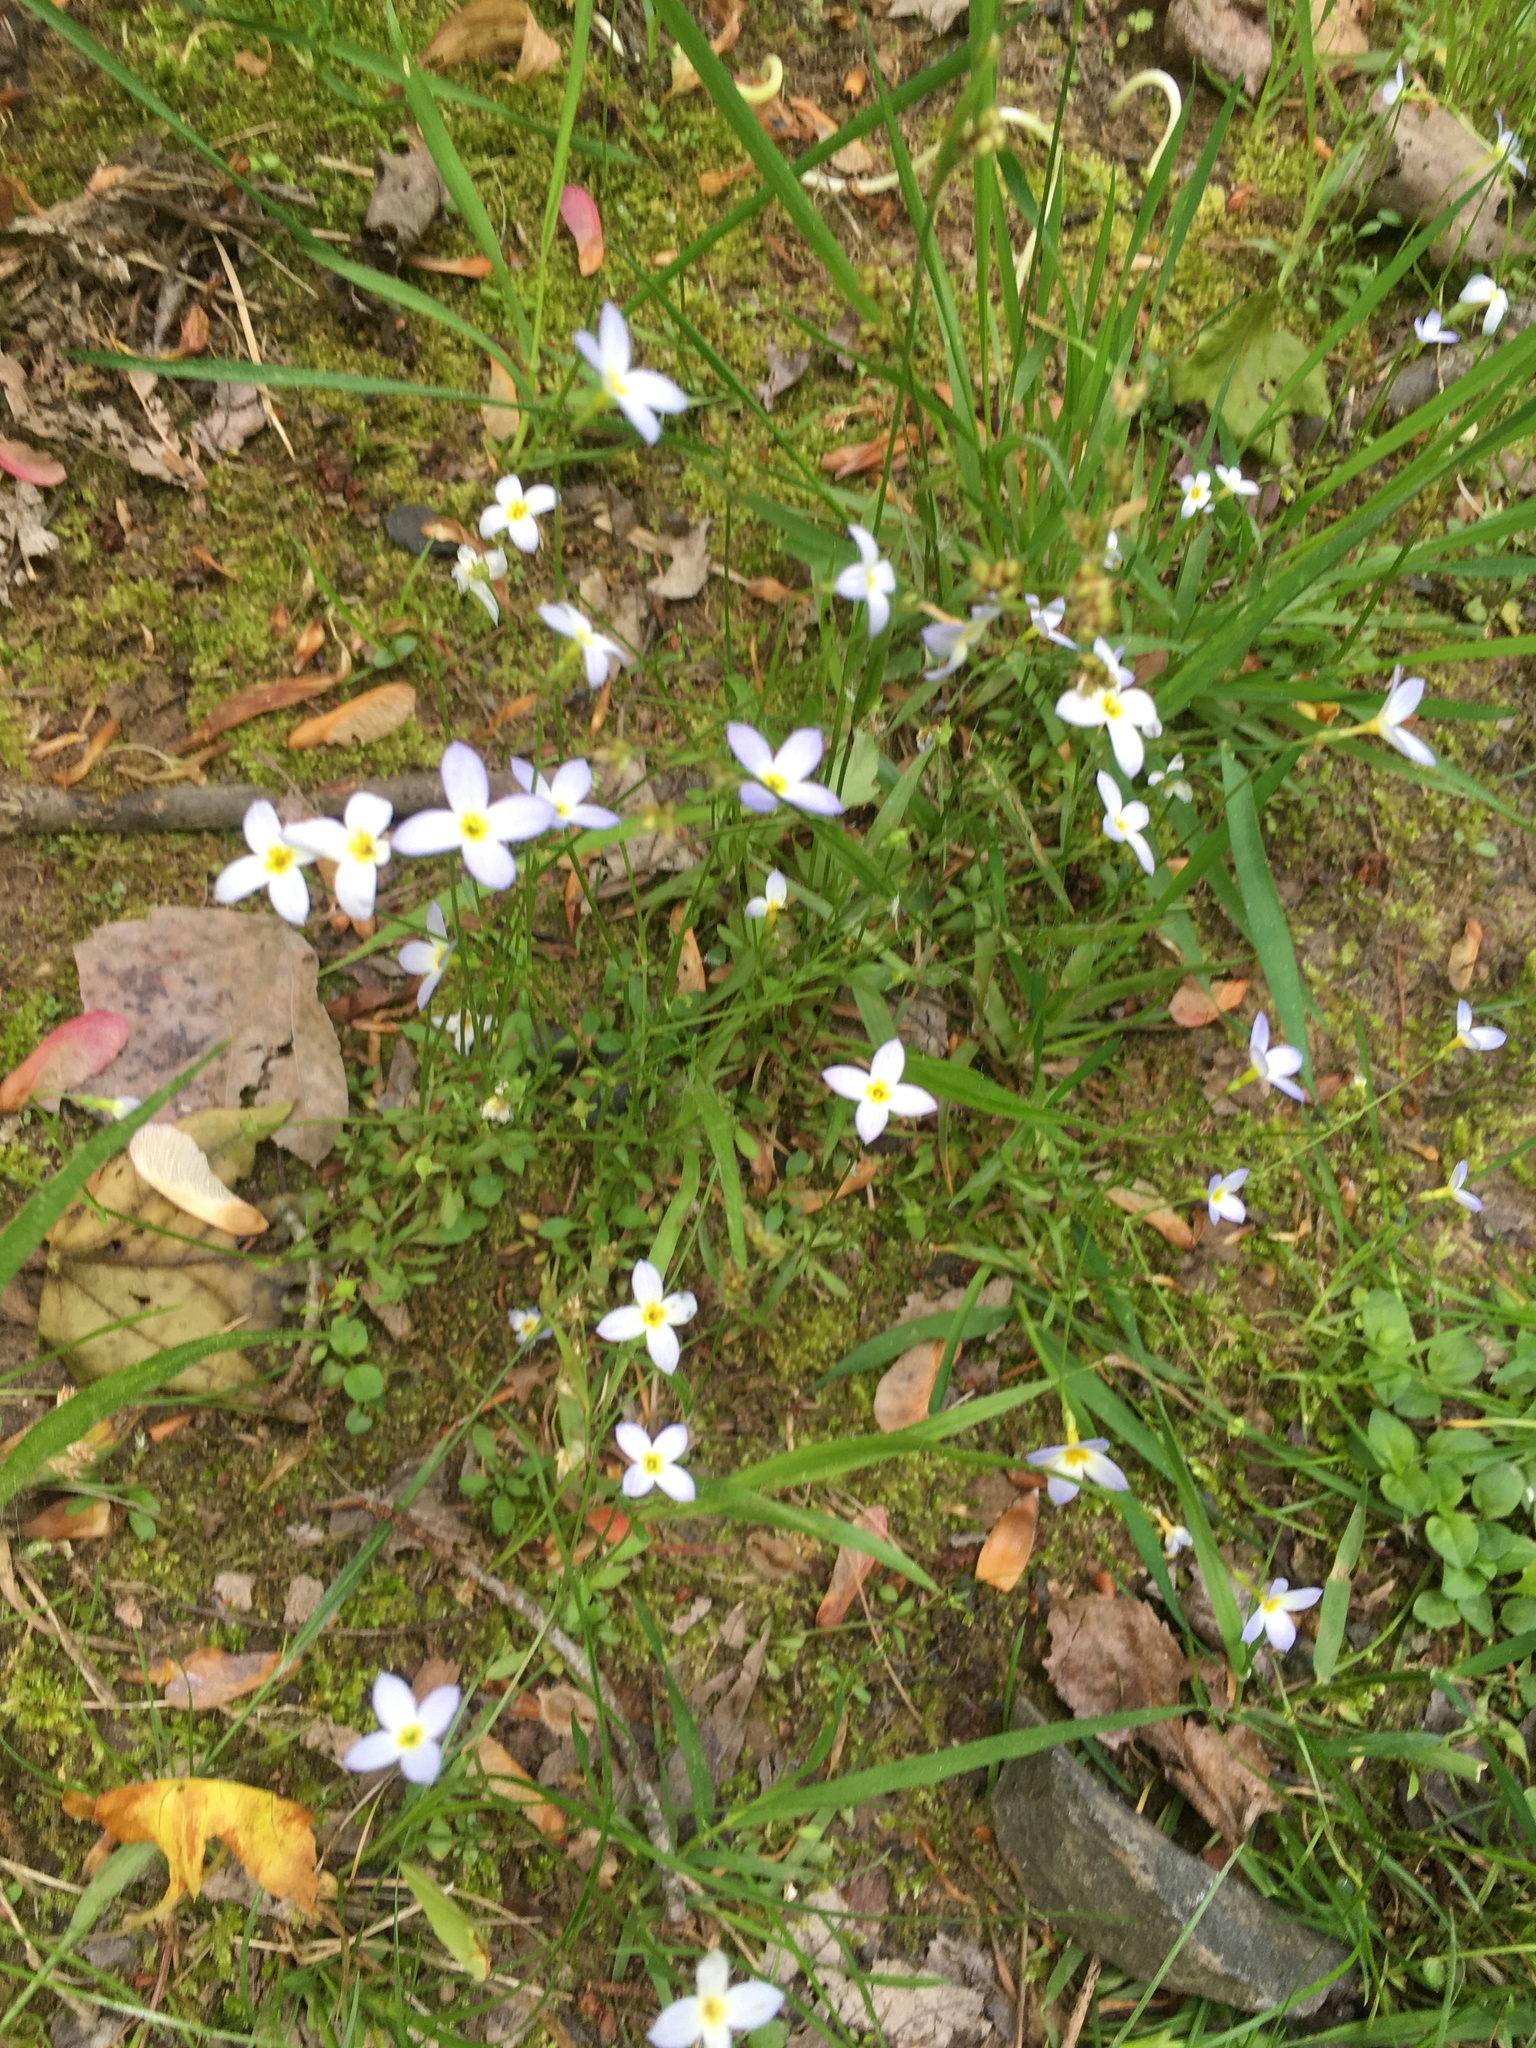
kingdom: Plantae
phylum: Tracheophyta
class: Magnoliopsida
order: Gentianales
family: Rubiaceae
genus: Houstonia
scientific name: Houstonia caerulea
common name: Bluets
